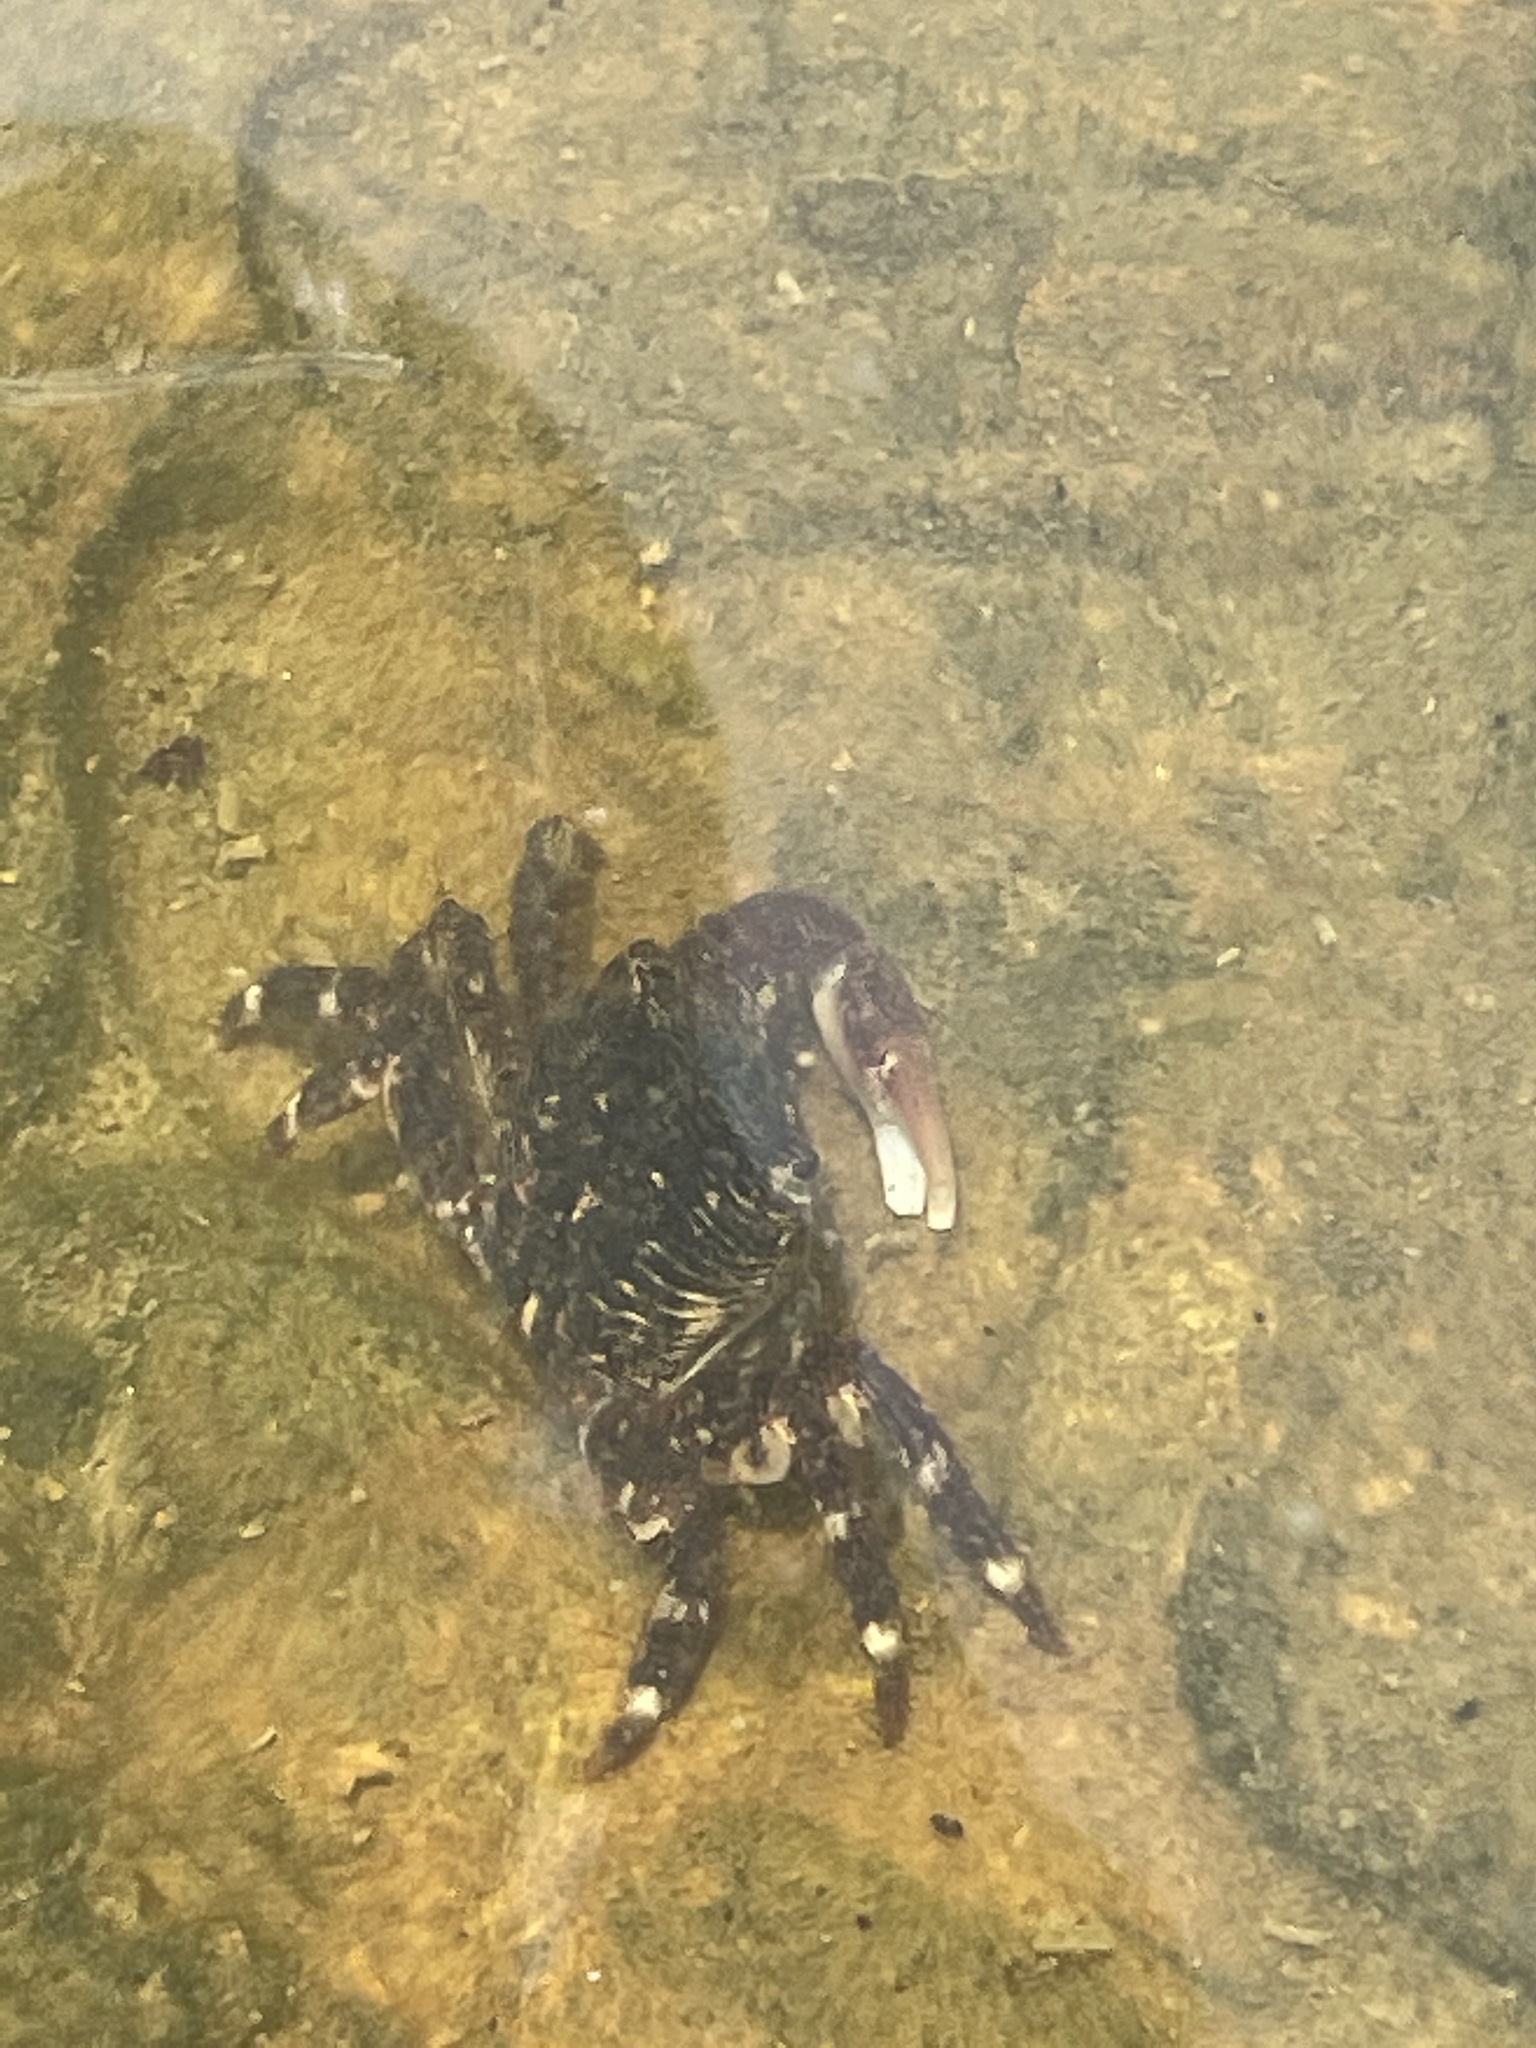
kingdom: Animalia
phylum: Arthropoda
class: Malacostraca
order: Decapoda
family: Grapsidae
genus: Pachygrapsus
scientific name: Pachygrapsus crassipes
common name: Striped shore crab
